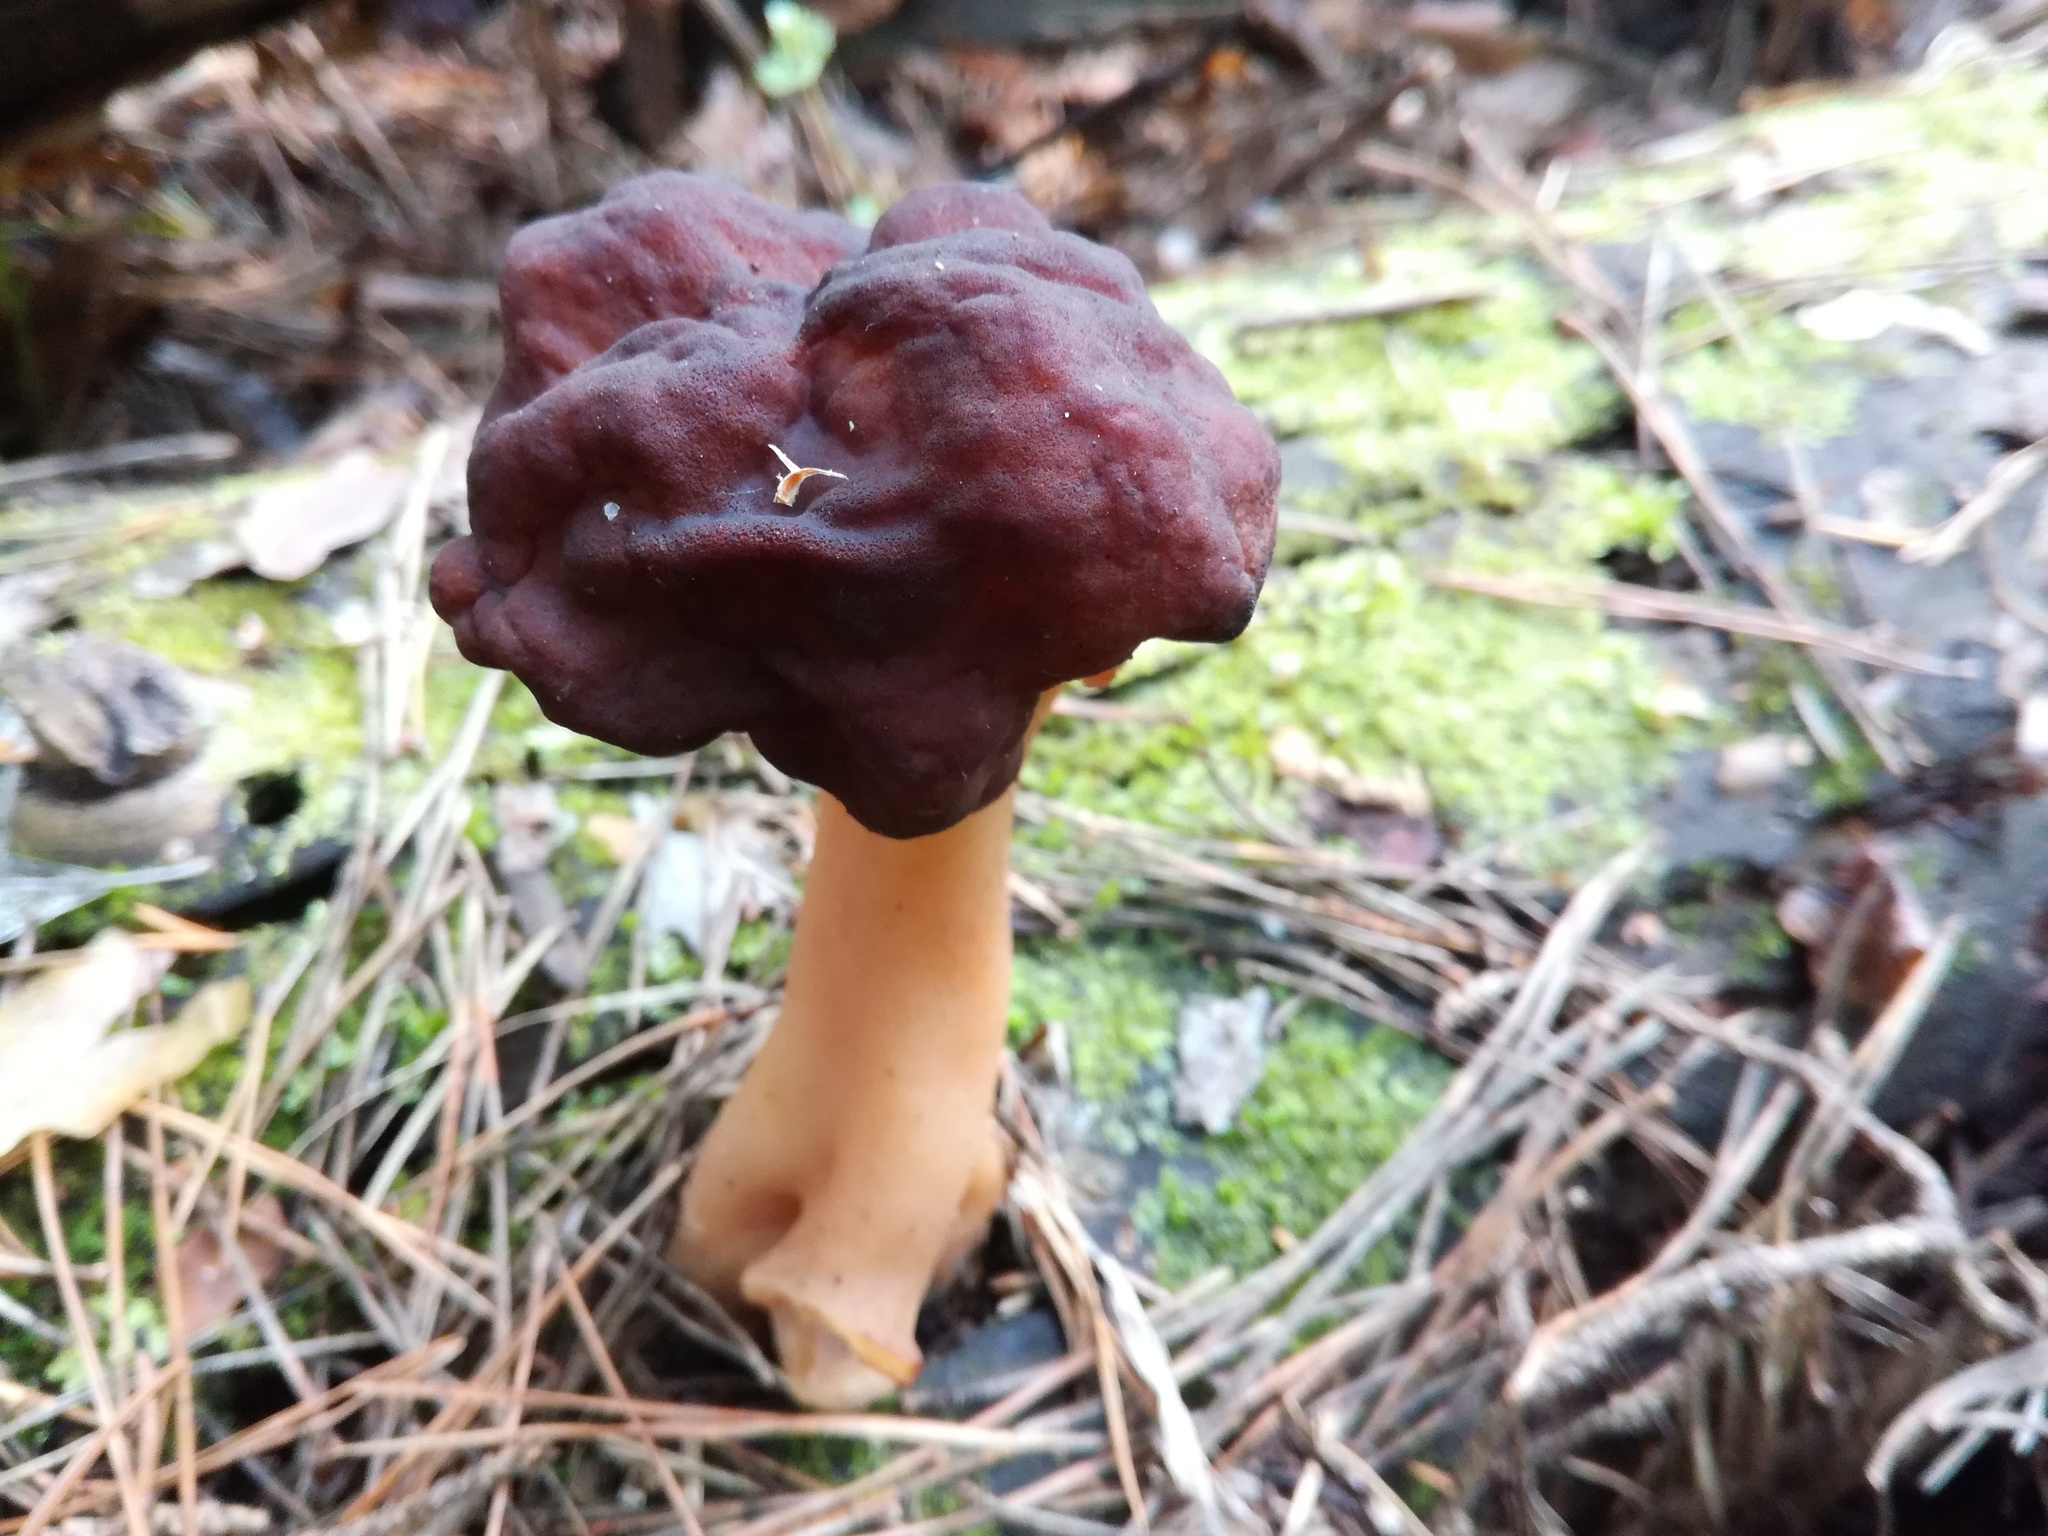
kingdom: Fungi
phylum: Ascomycota
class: Pezizomycetes
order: Pezizales
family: Discinaceae
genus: Gyromitra
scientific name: Gyromitra esculenta
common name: False morel
